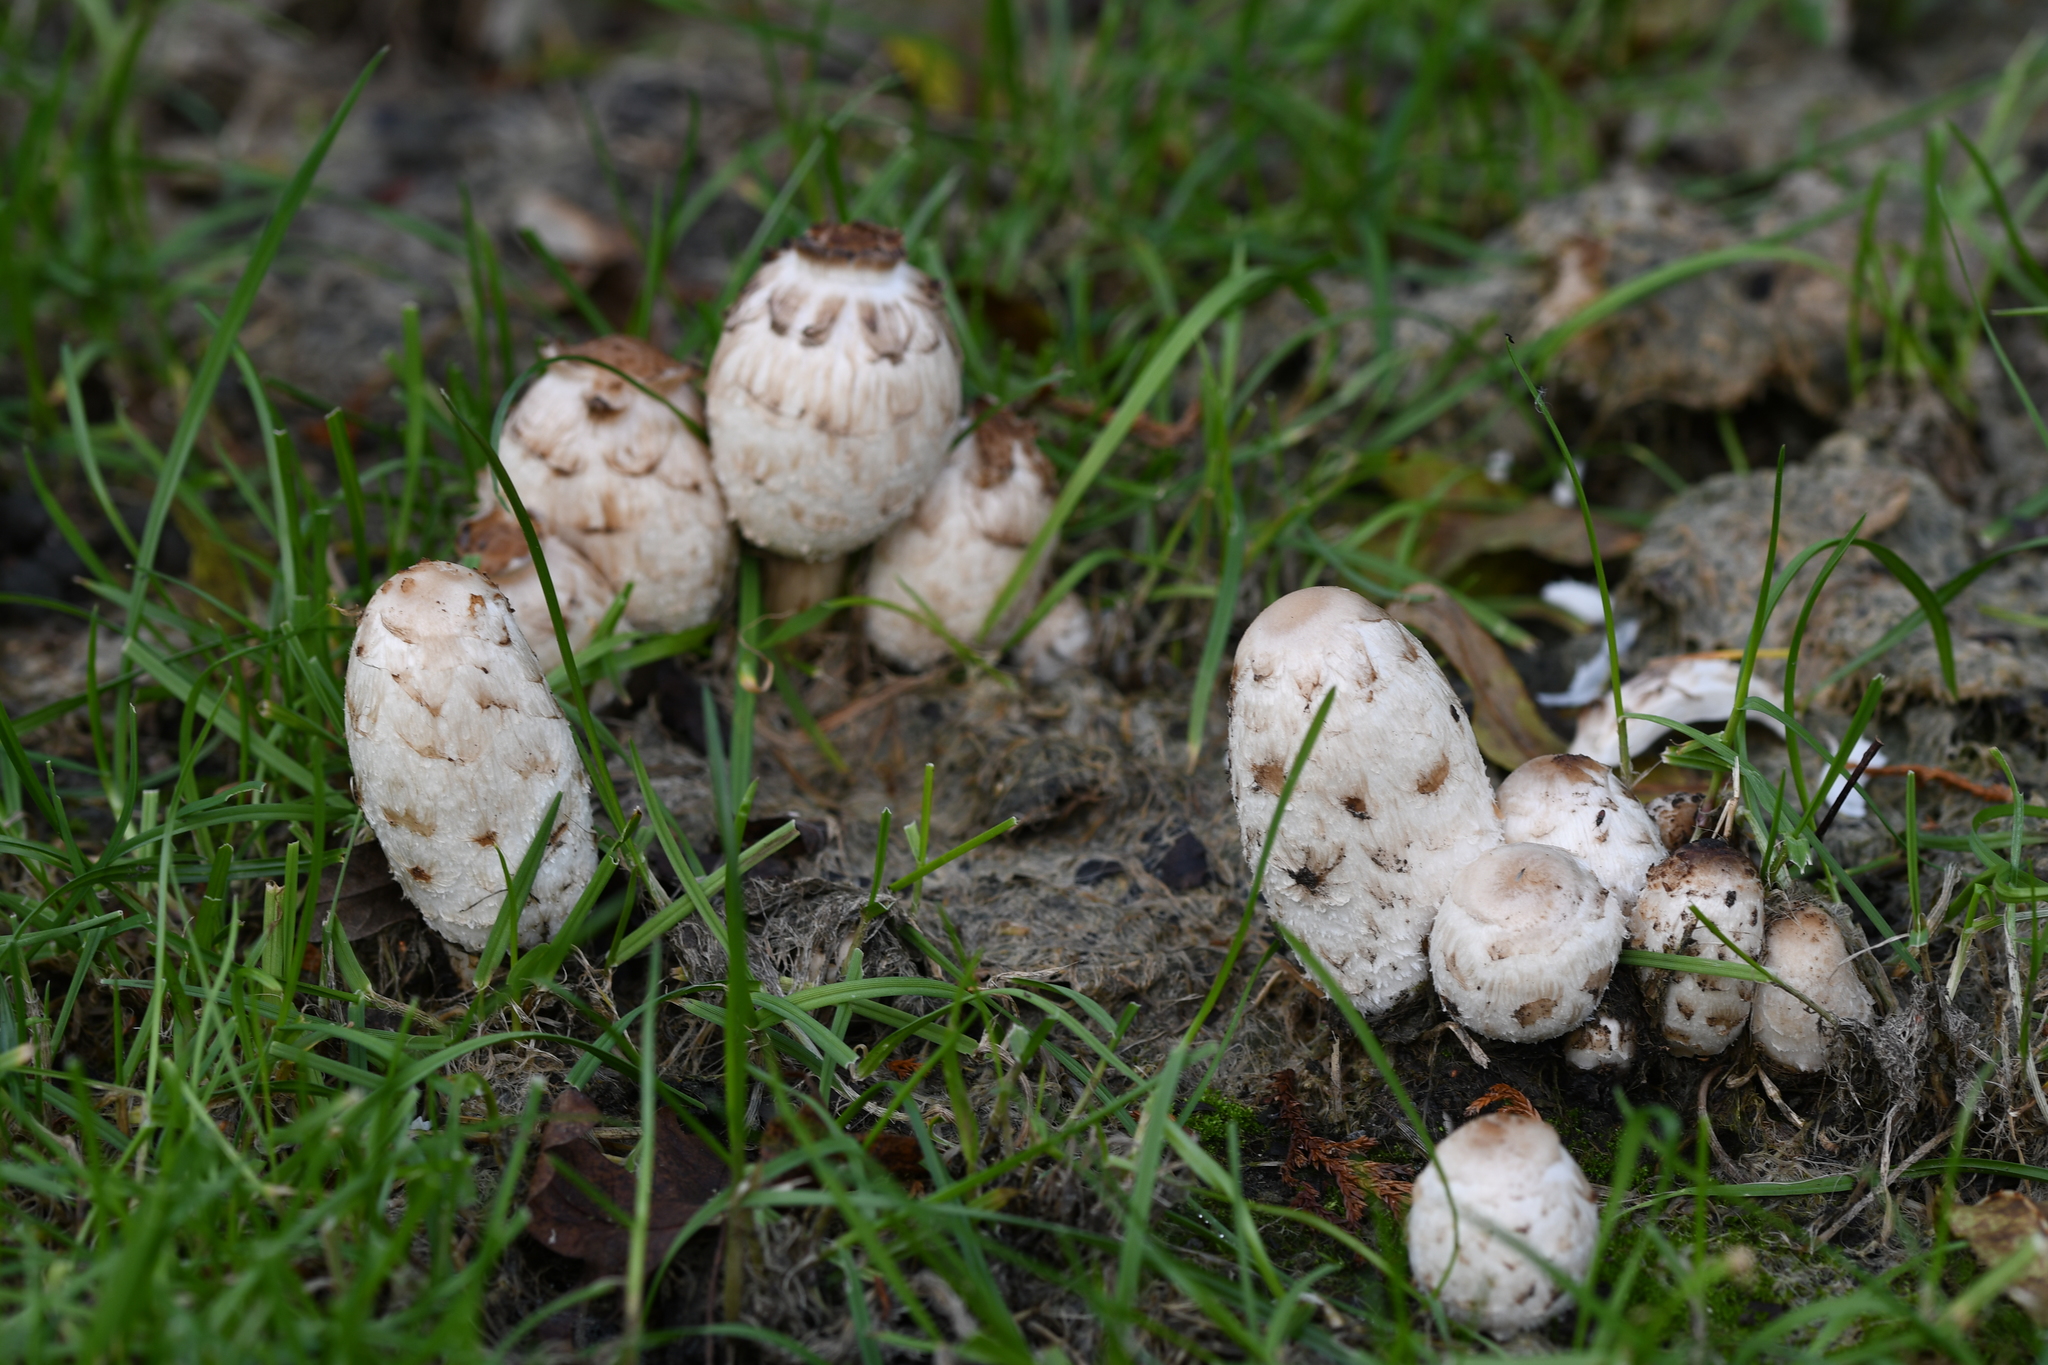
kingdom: Fungi
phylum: Basidiomycota
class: Agaricomycetes
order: Agaricales
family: Agaricaceae
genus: Coprinus
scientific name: Coprinus comatus
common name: Lawyer's wig
